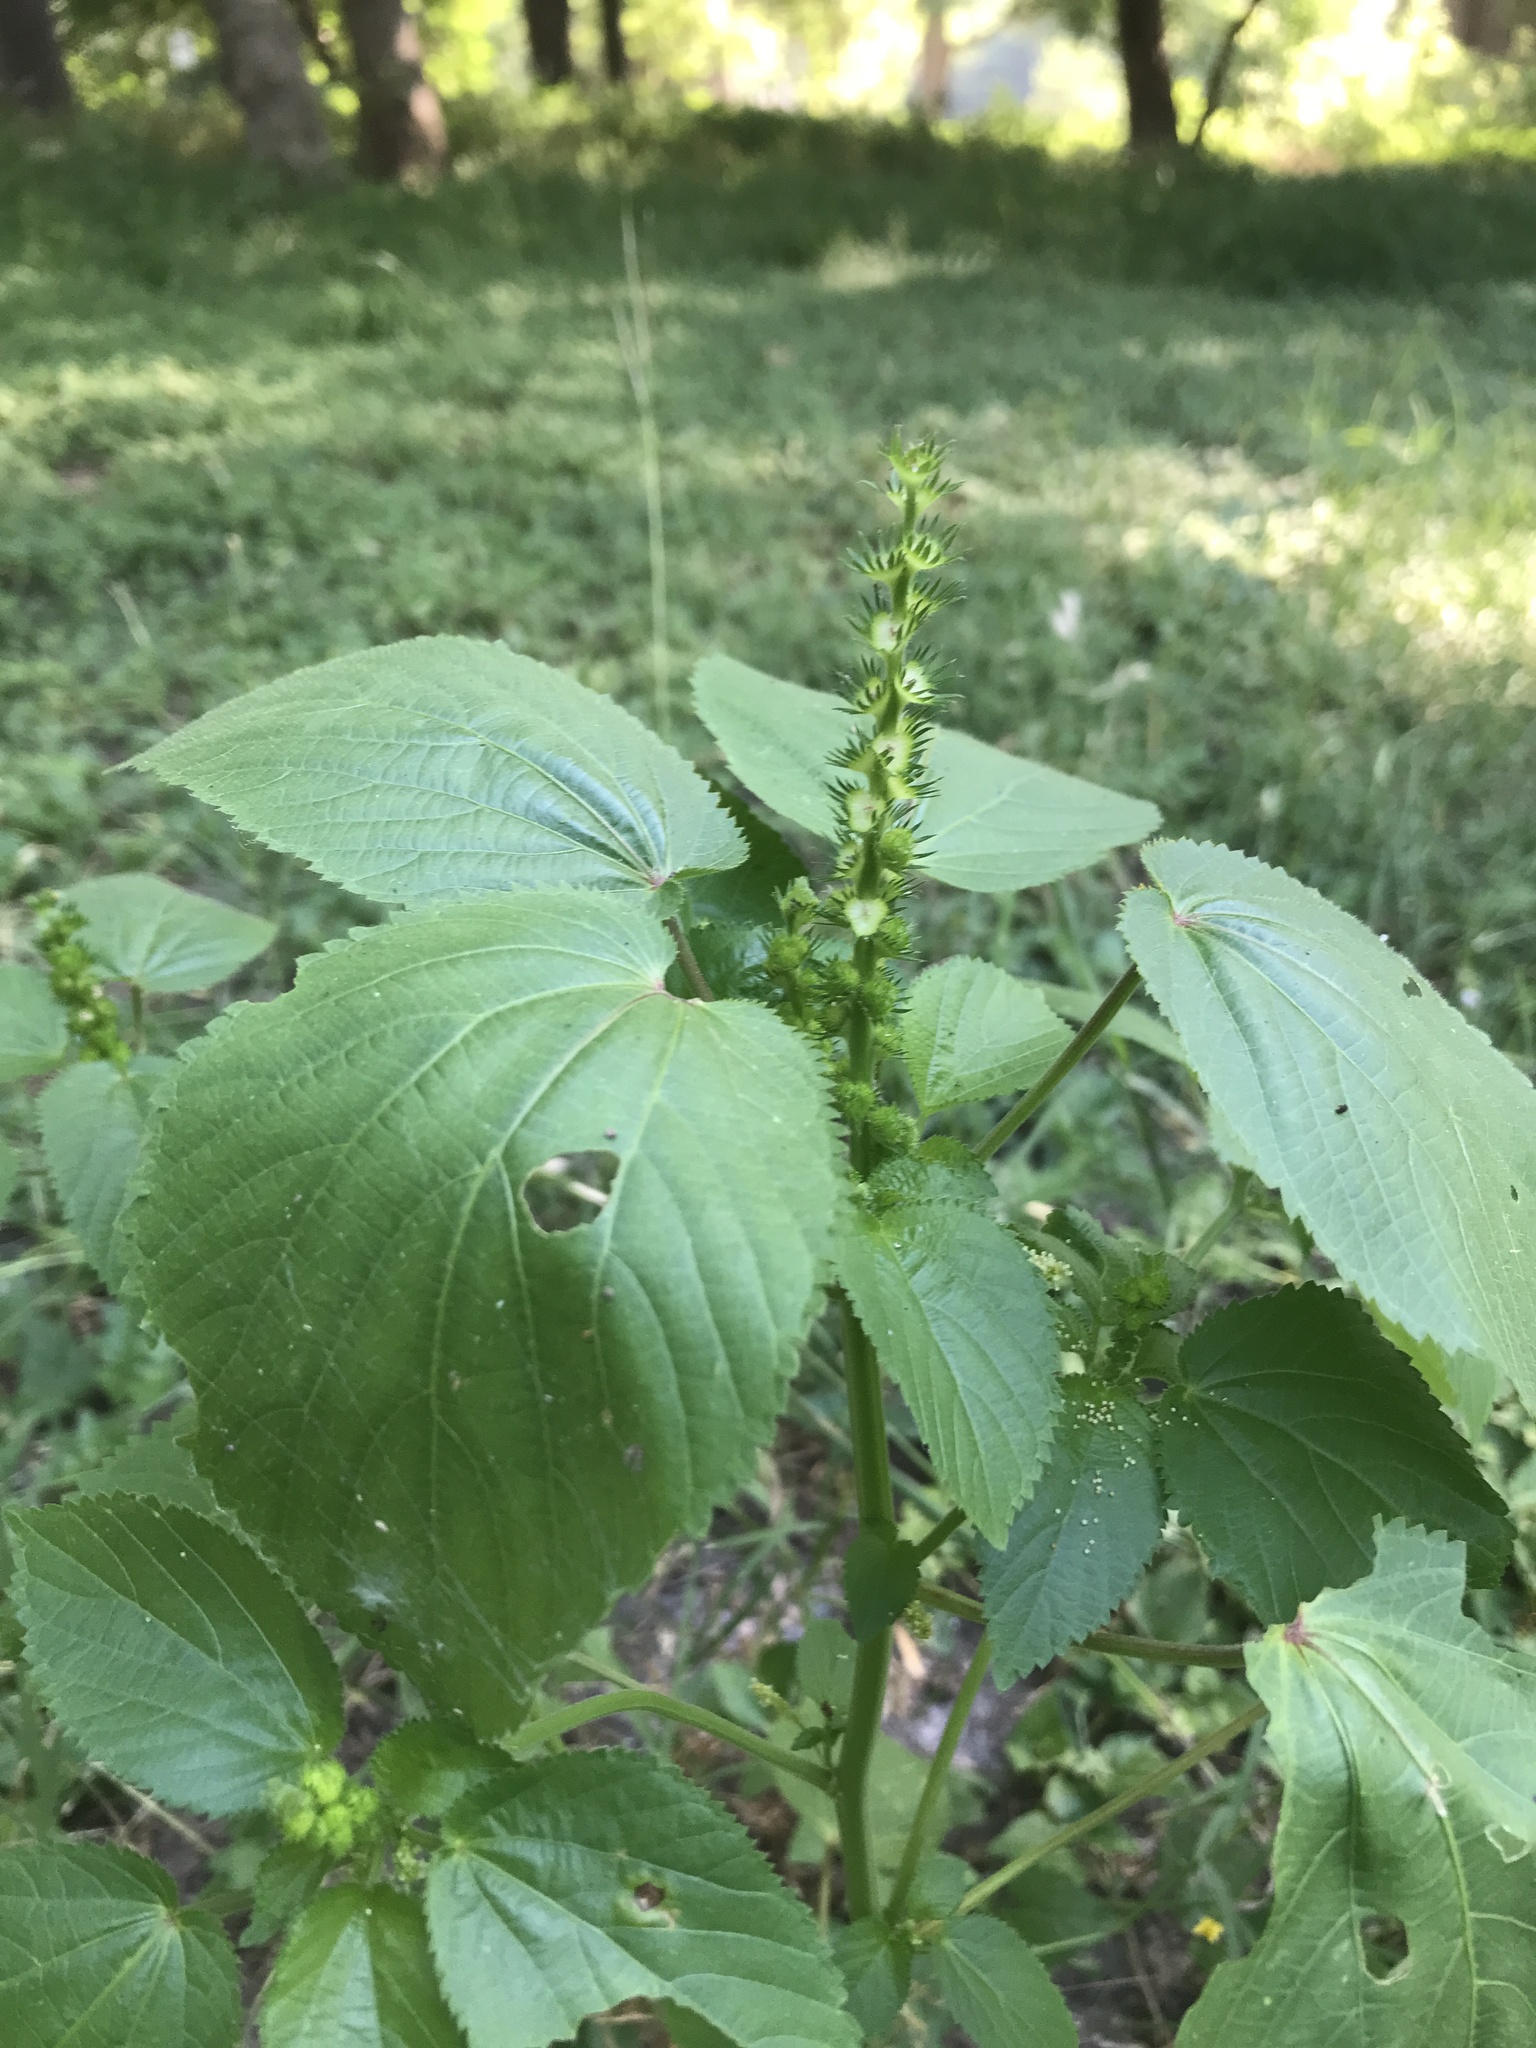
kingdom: Plantae
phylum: Tracheophyta
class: Magnoliopsida
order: Malpighiales
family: Euphorbiaceae
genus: Acalypha
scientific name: Acalypha ostryifolia
